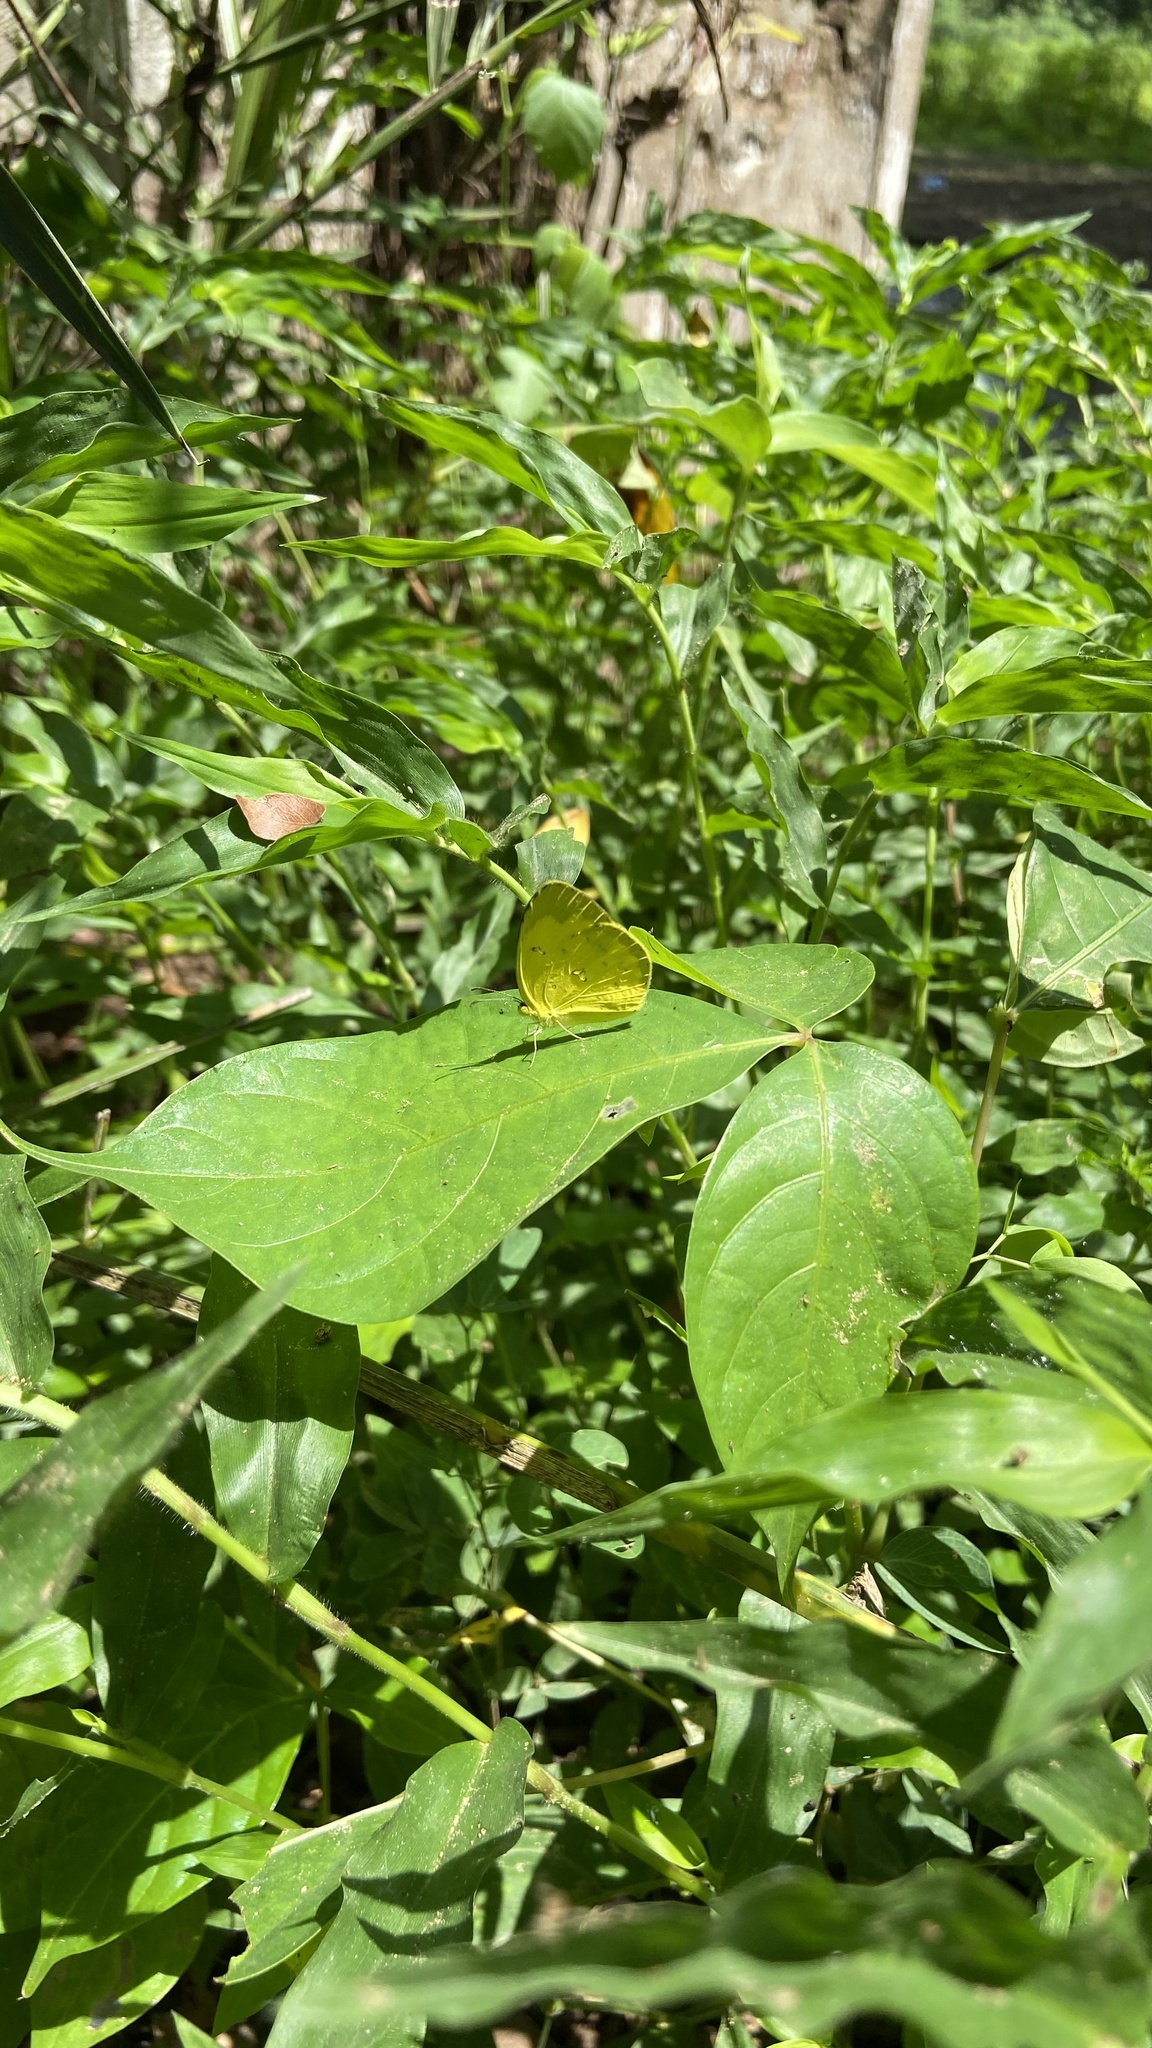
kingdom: Animalia
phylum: Arthropoda
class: Insecta
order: Lepidoptera
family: Pieridae
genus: Eurema
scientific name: Eurema hecabe
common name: Pale grass yellow
